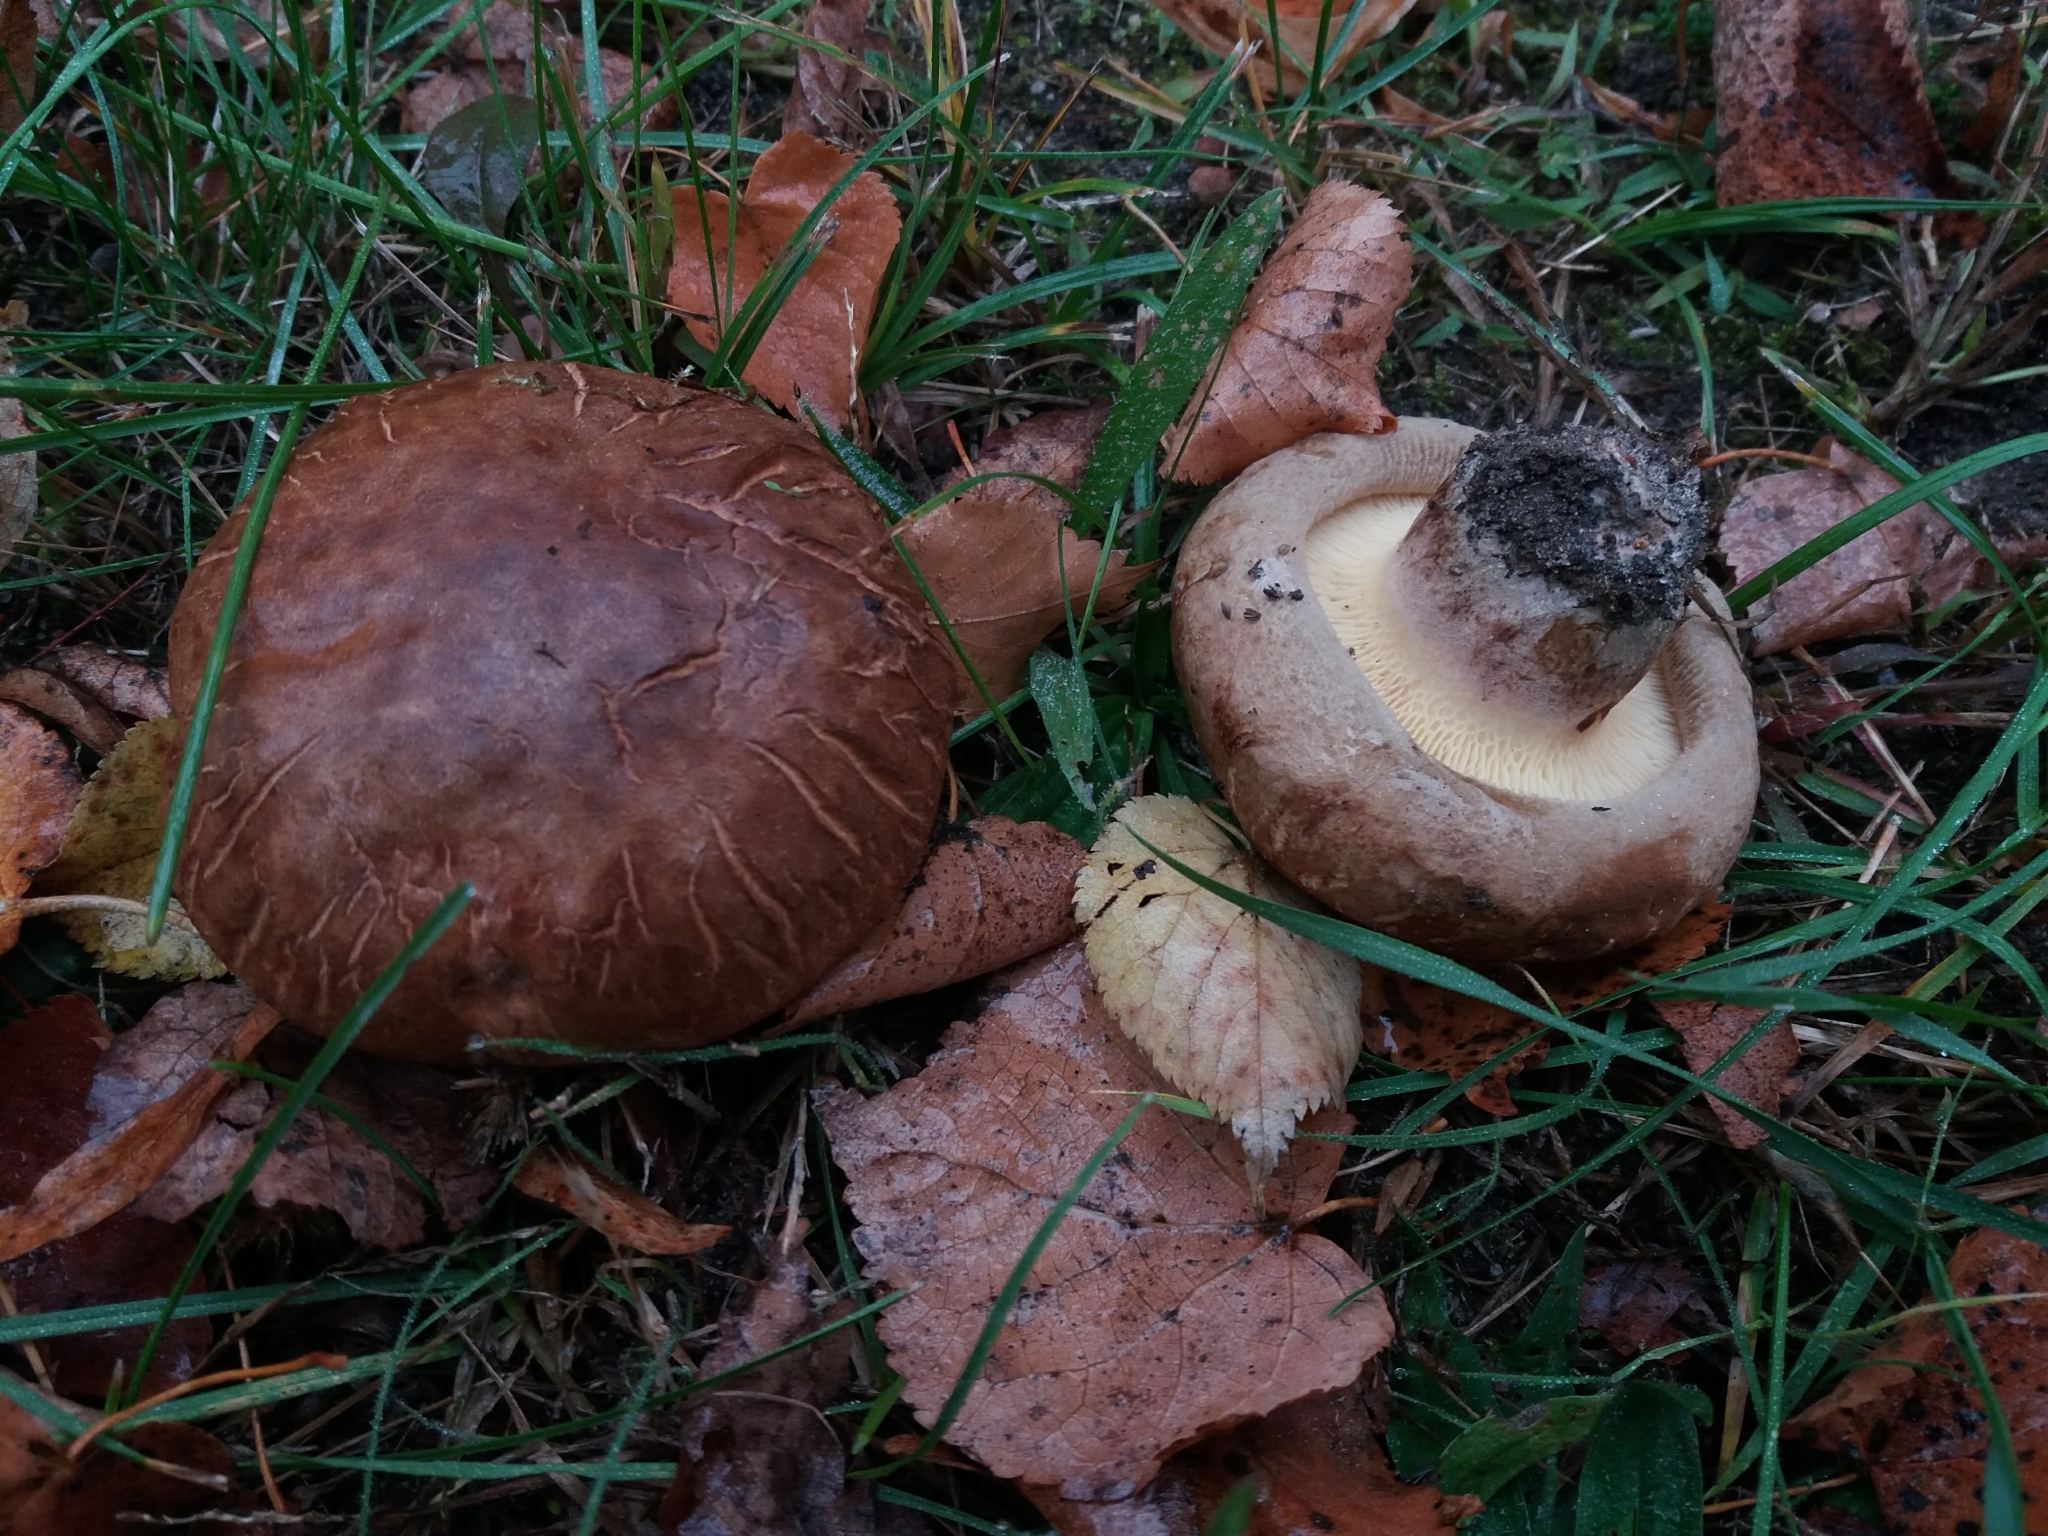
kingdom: Fungi
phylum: Basidiomycota
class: Agaricomycetes
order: Boletales
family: Paxillaceae
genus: Paxillus
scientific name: Paxillus involutus
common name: Brown roll rim
